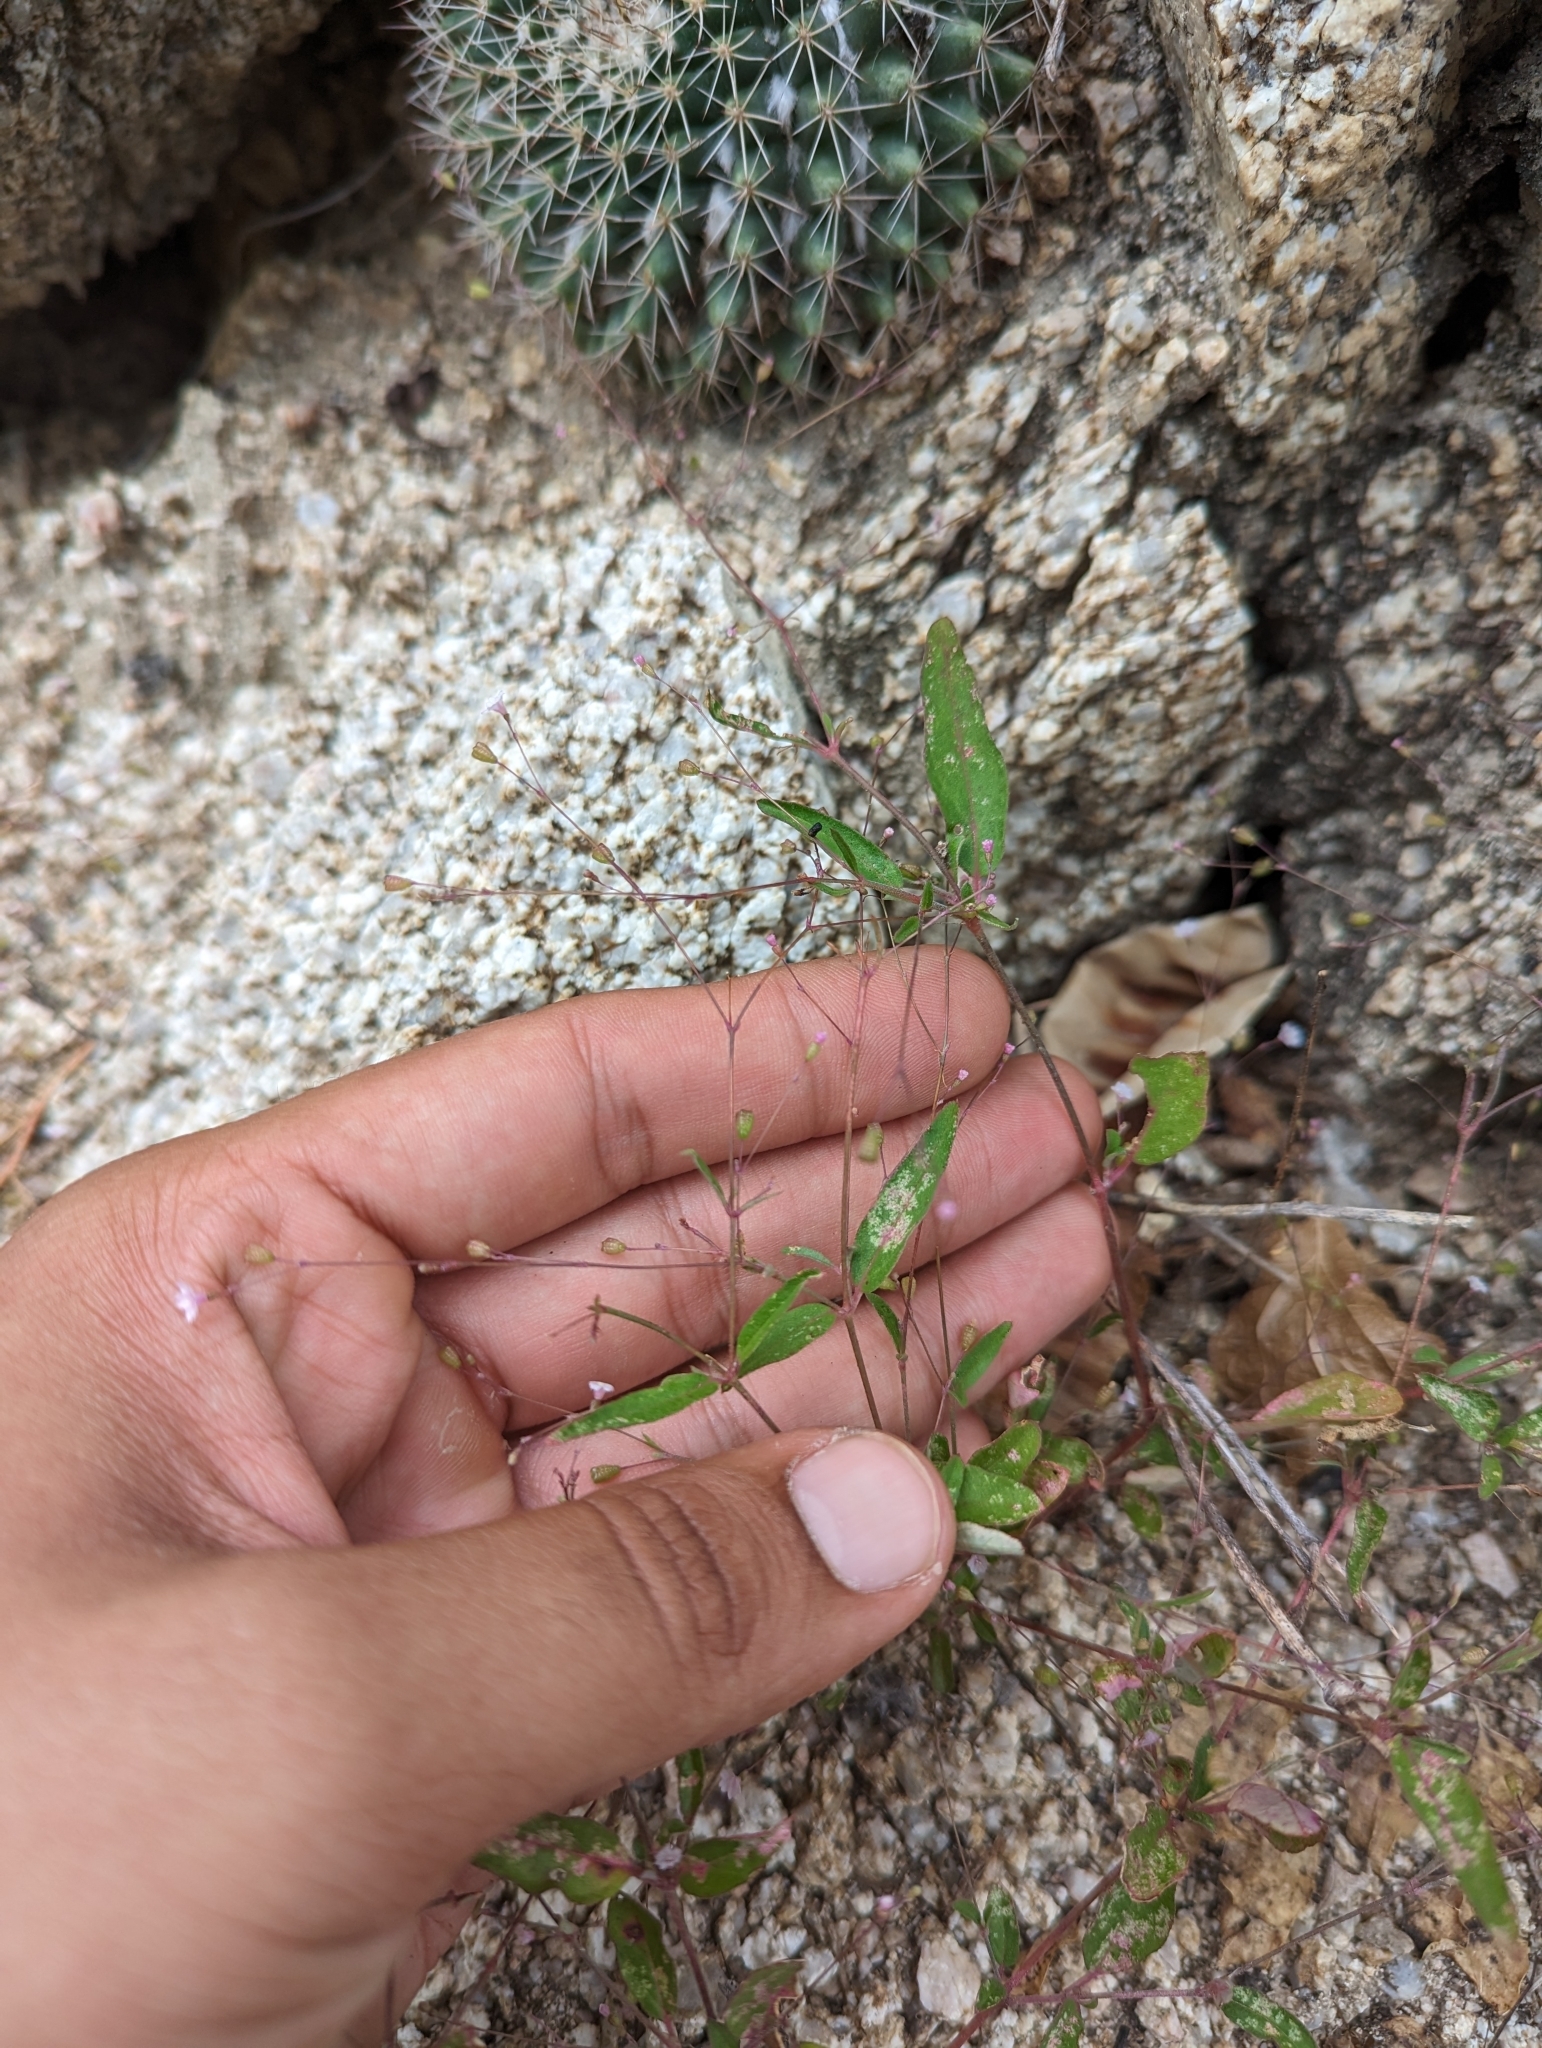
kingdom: Plantae
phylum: Tracheophyta
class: Magnoliopsida
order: Caryophyllales
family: Nyctaginaceae
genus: Boerhavia
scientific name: Boerhavia maculata
